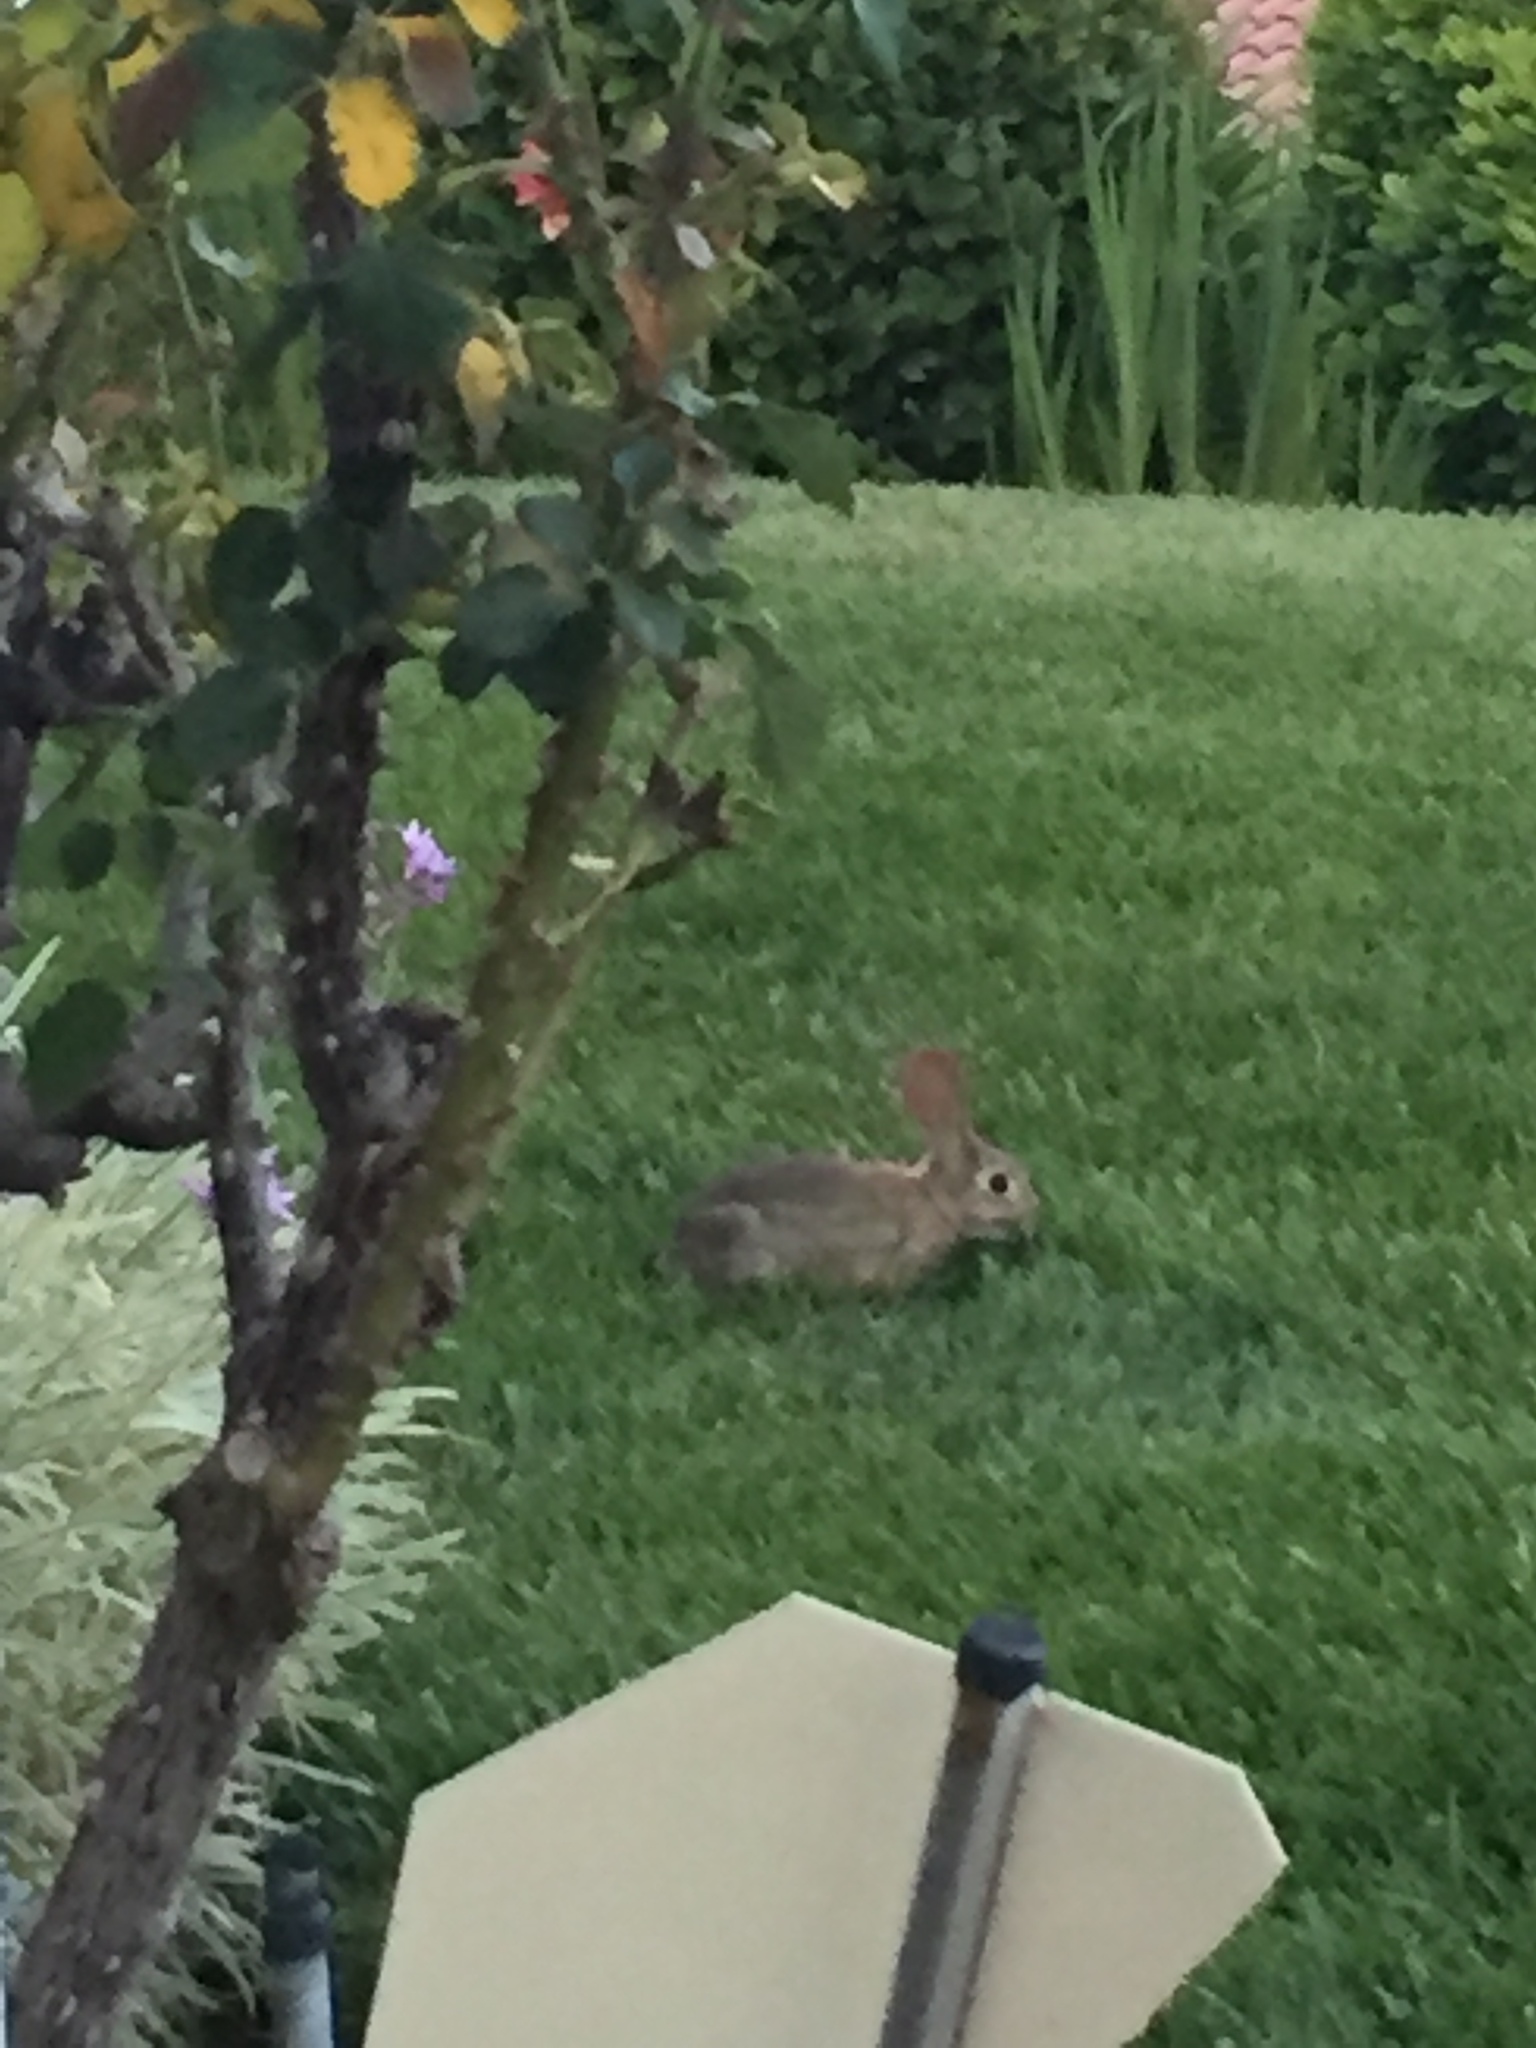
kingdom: Animalia
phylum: Chordata
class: Mammalia
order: Lagomorpha
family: Leporidae
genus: Sylvilagus
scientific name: Sylvilagus audubonii
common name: Desert cottontail
